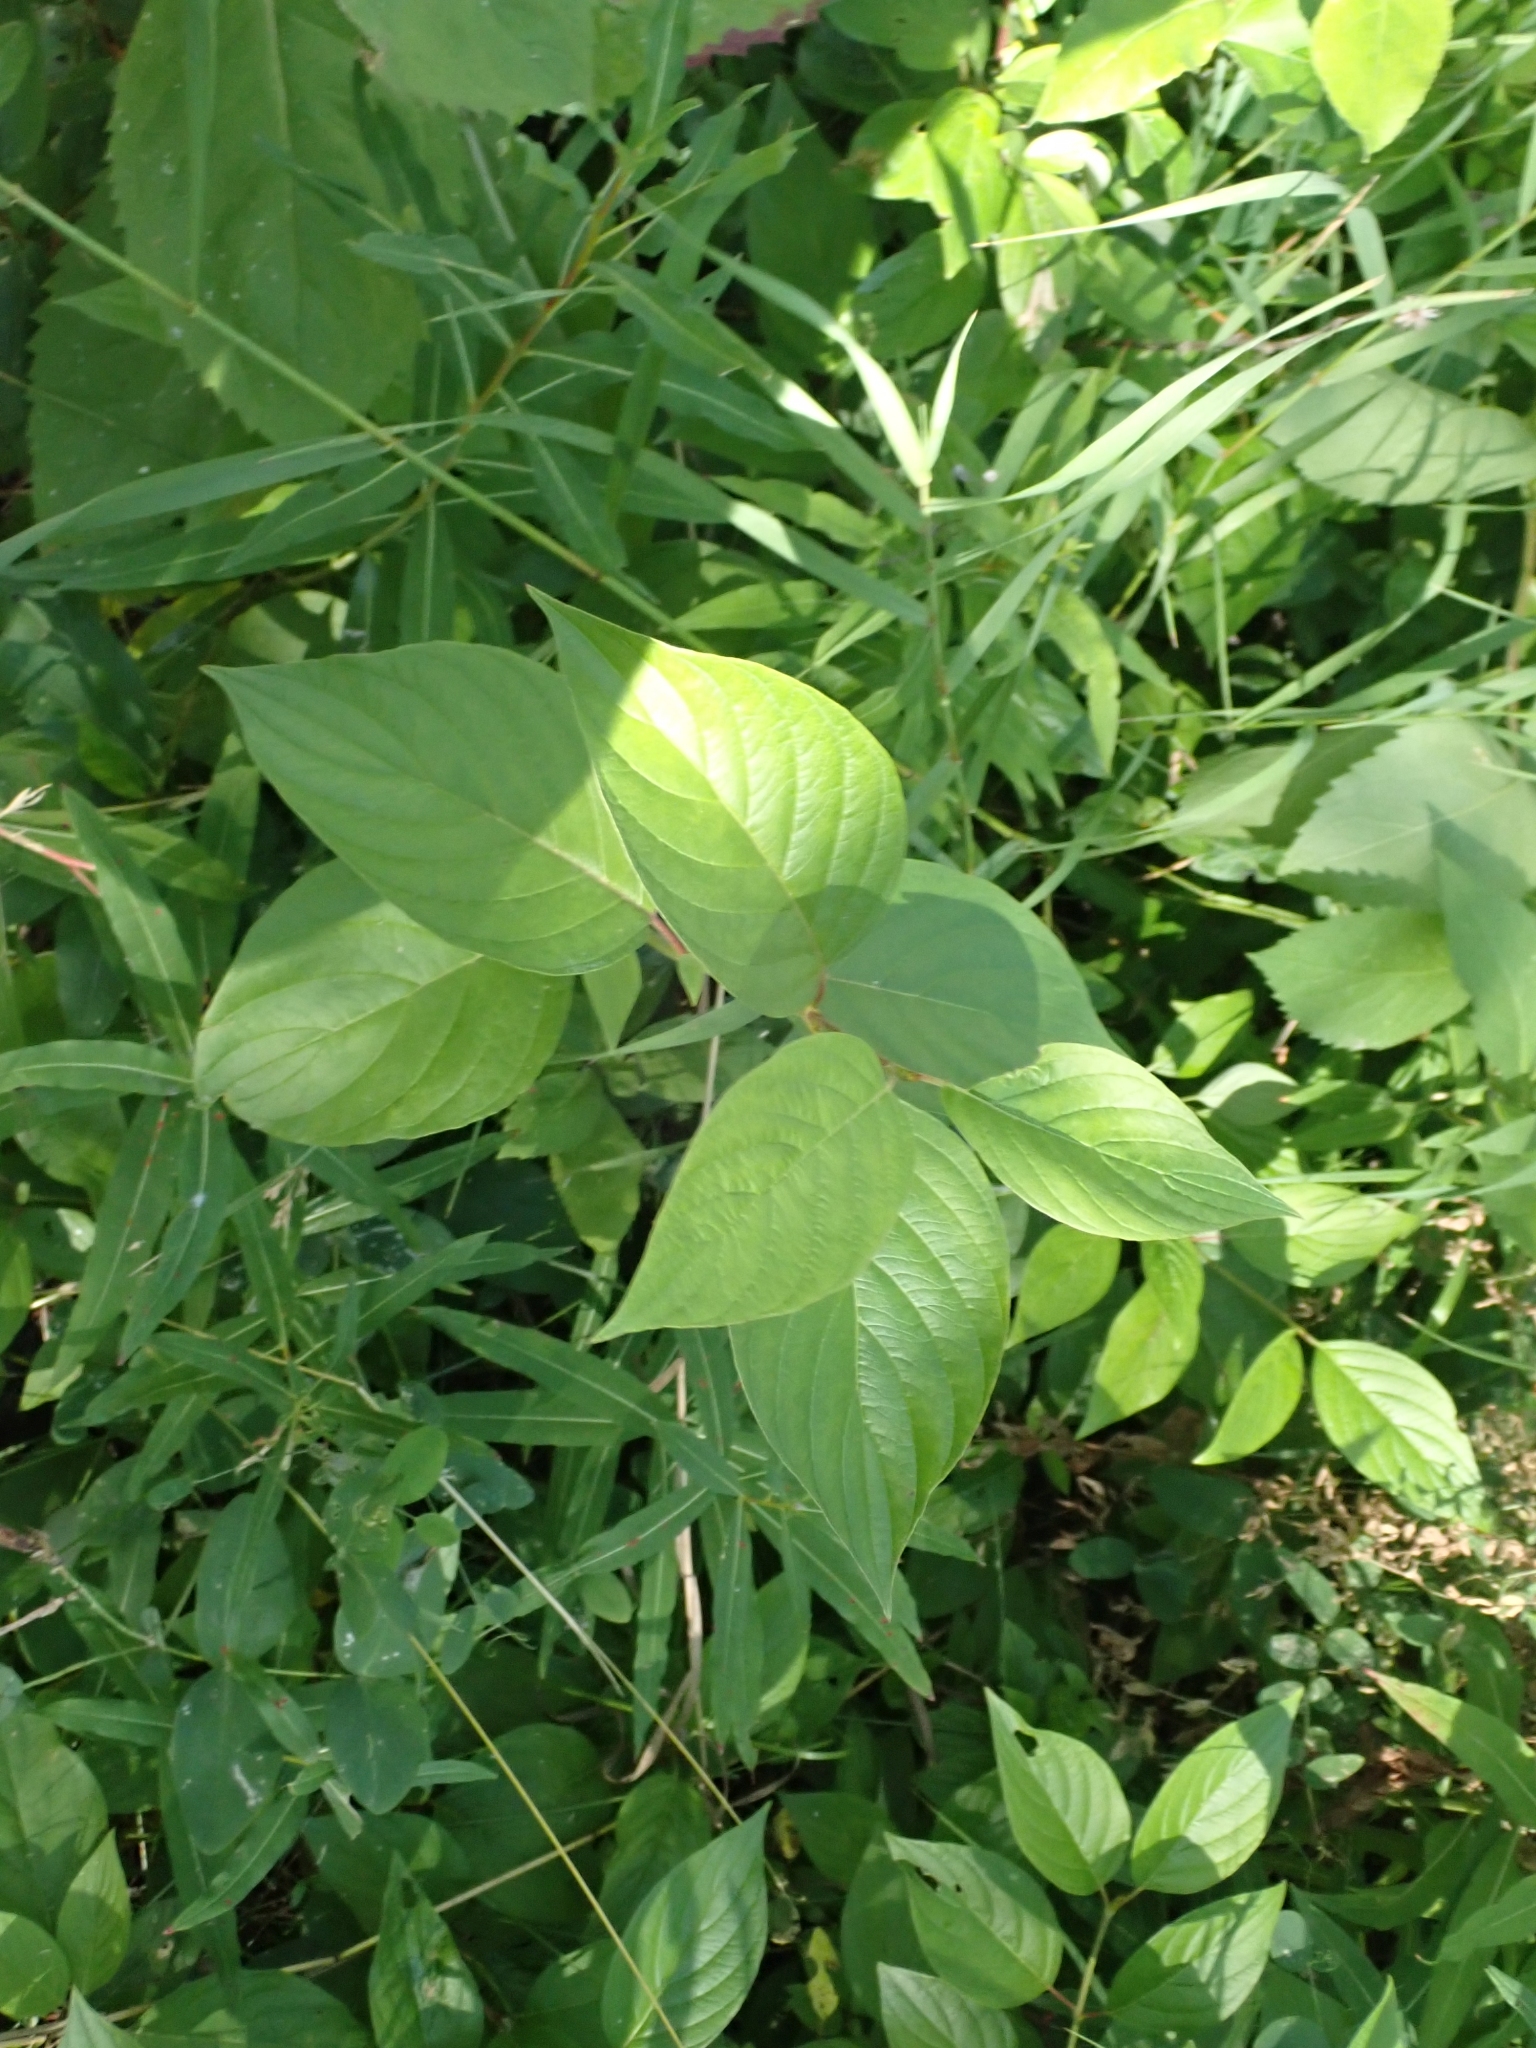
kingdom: Plantae
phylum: Tracheophyta
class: Magnoliopsida
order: Cornales
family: Cornaceae
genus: Cornus
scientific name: Cornus sericea
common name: Red-osier dogwood
